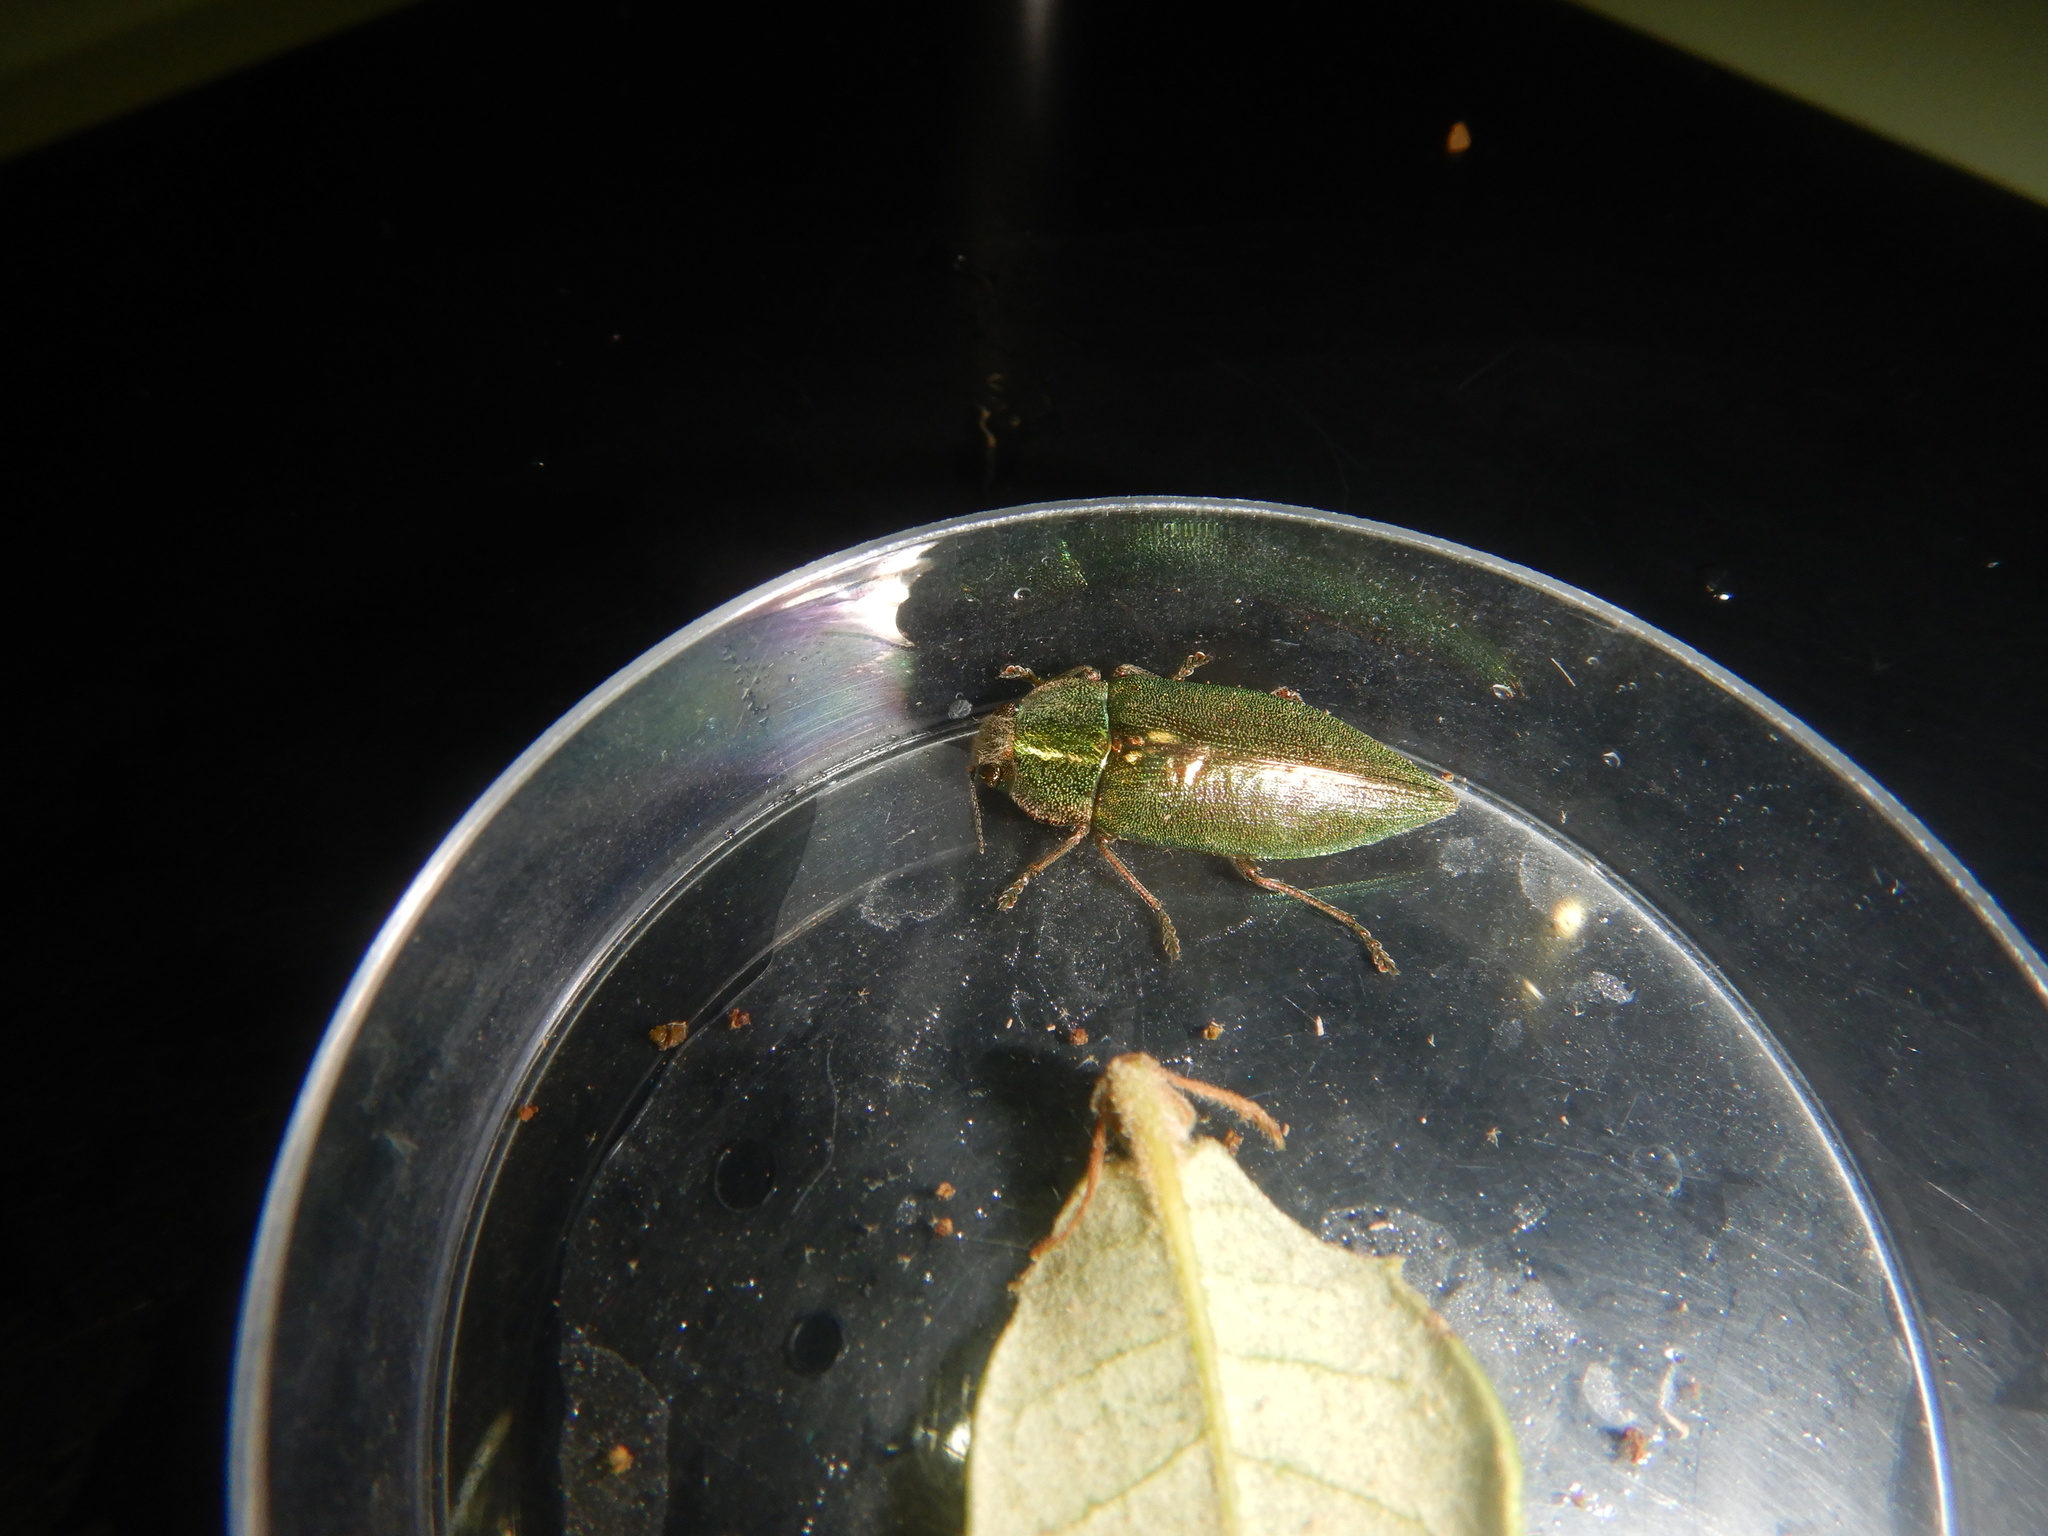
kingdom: Animalia
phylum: Arthropoda
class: Insecta
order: Coleoptera
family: Buprestidae
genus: Latipalpis
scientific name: Latipalpis plana
